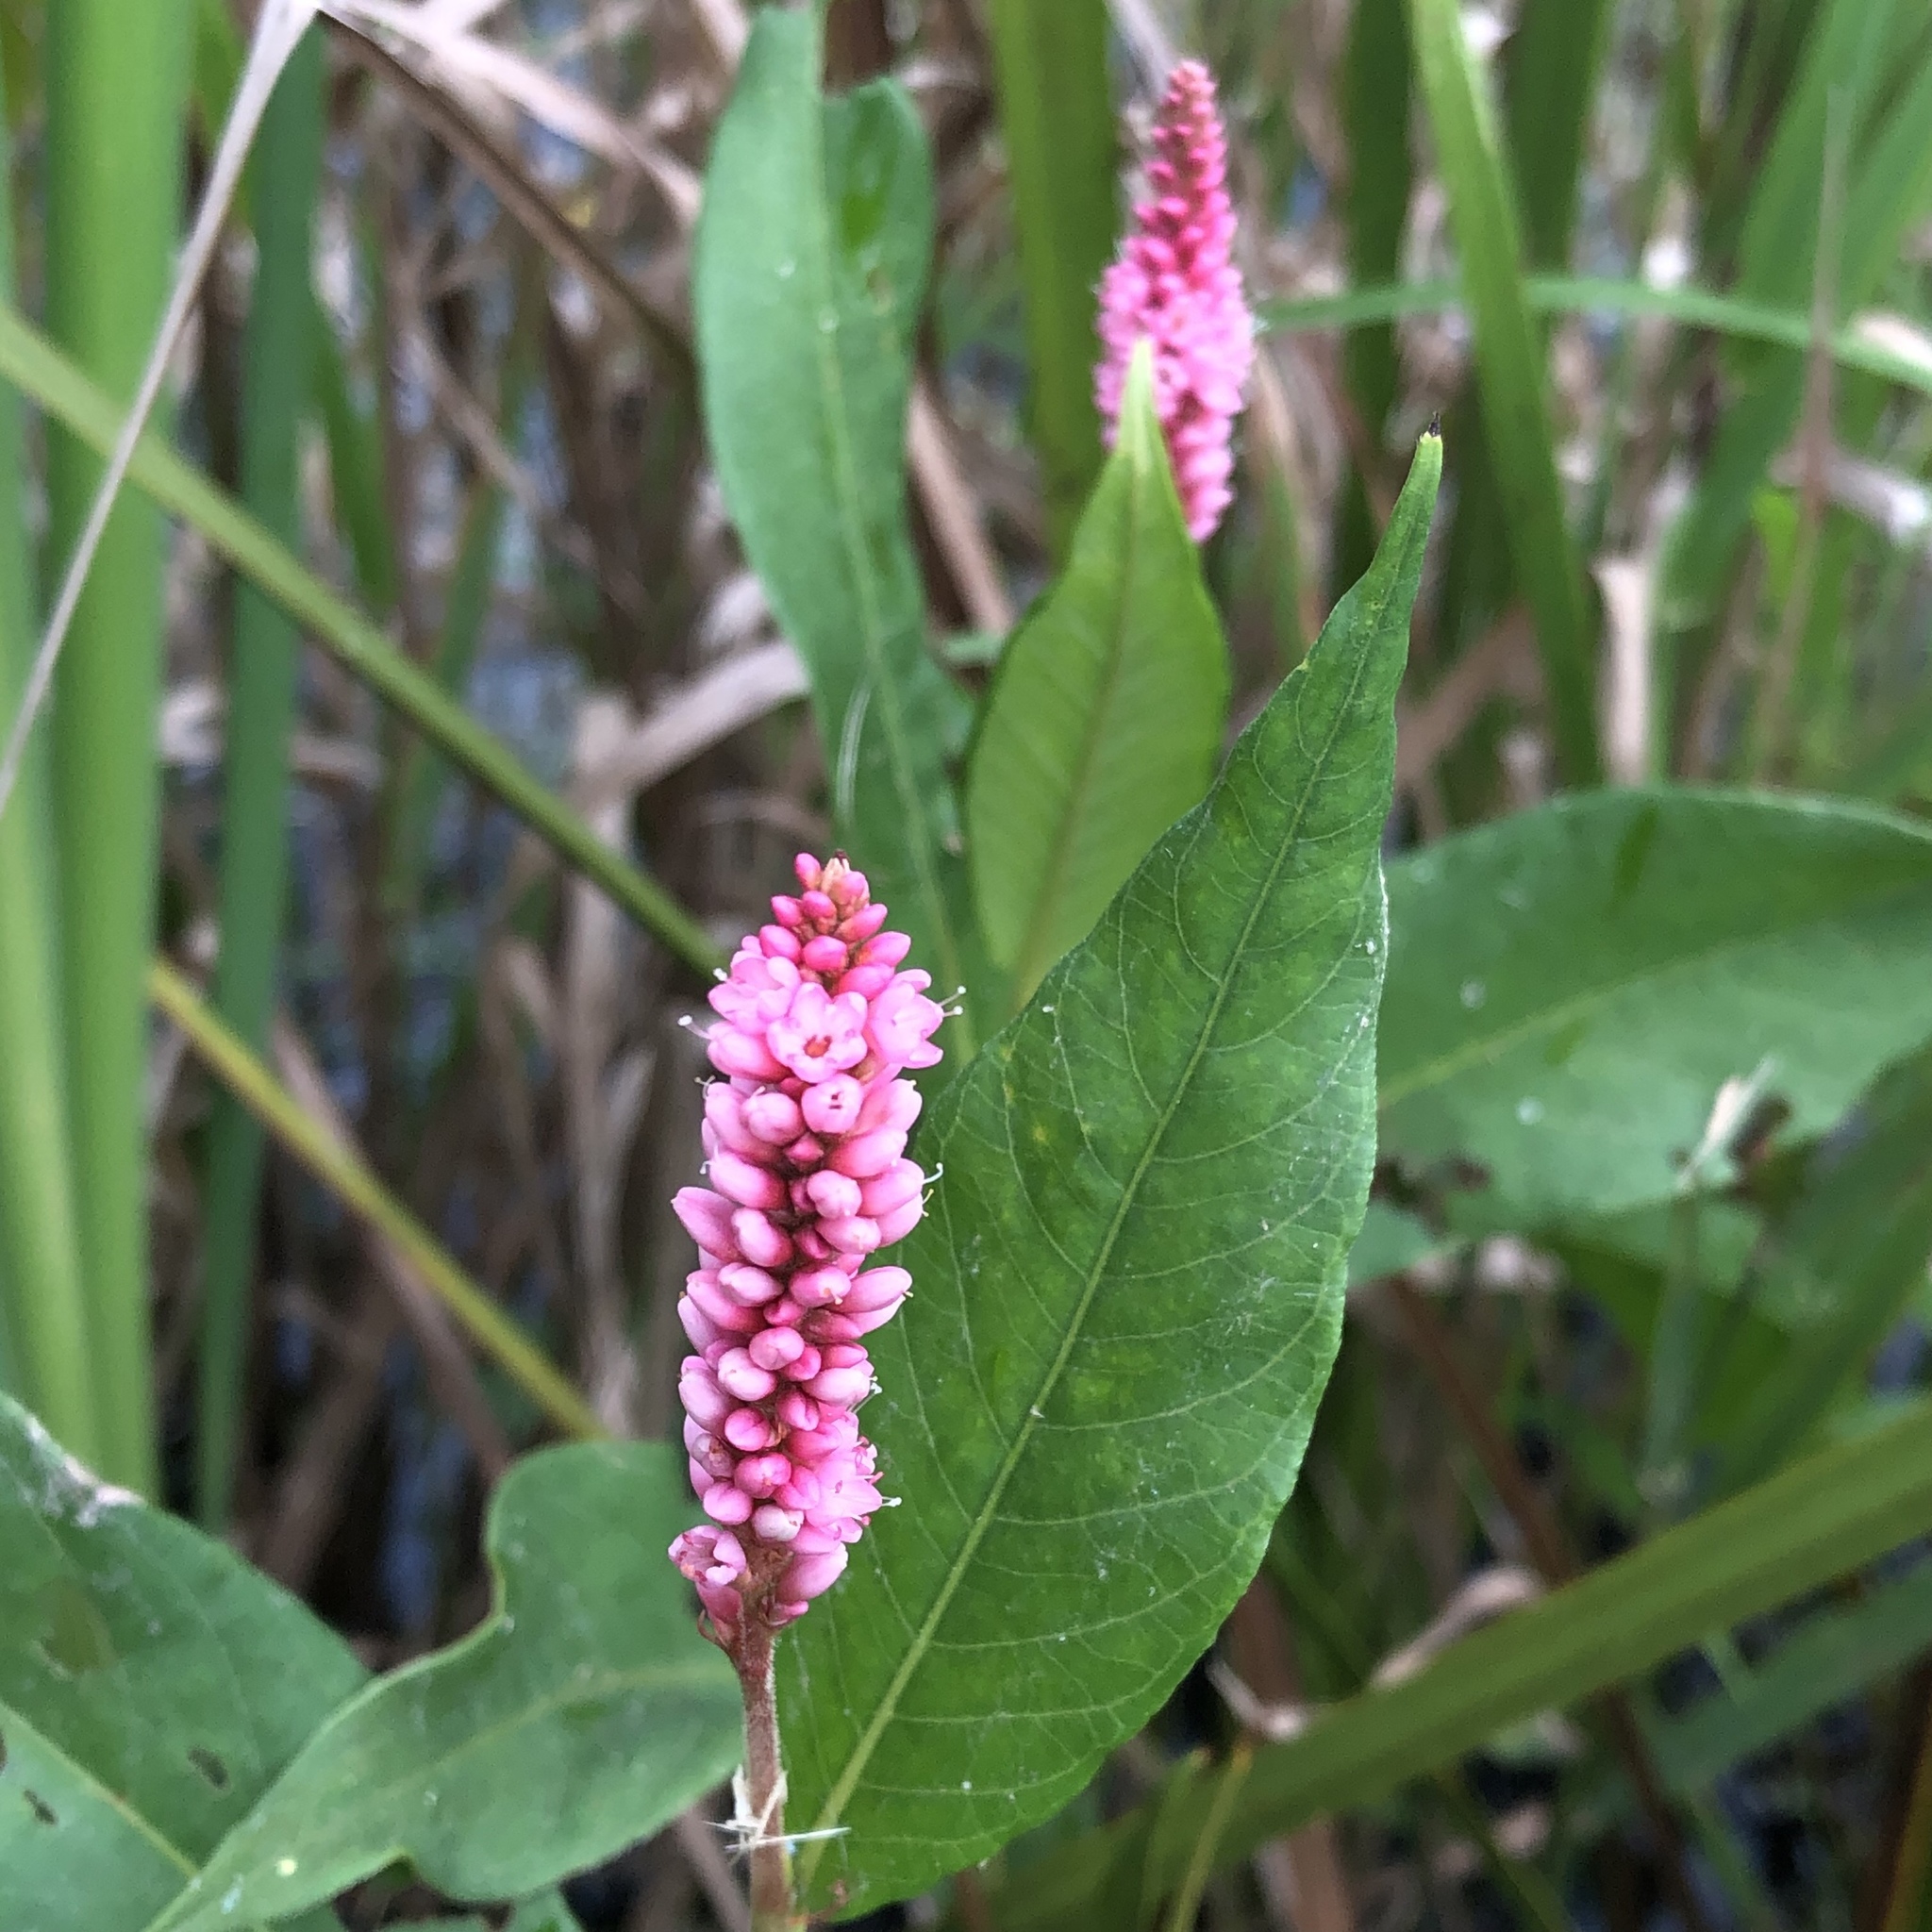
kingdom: Plantae
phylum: Tracheophyta
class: Magnoliopsida
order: Caryophyllales
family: Polygonaceae
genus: Persicaria
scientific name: Persicaria amphibia
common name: Amphibious bistort
